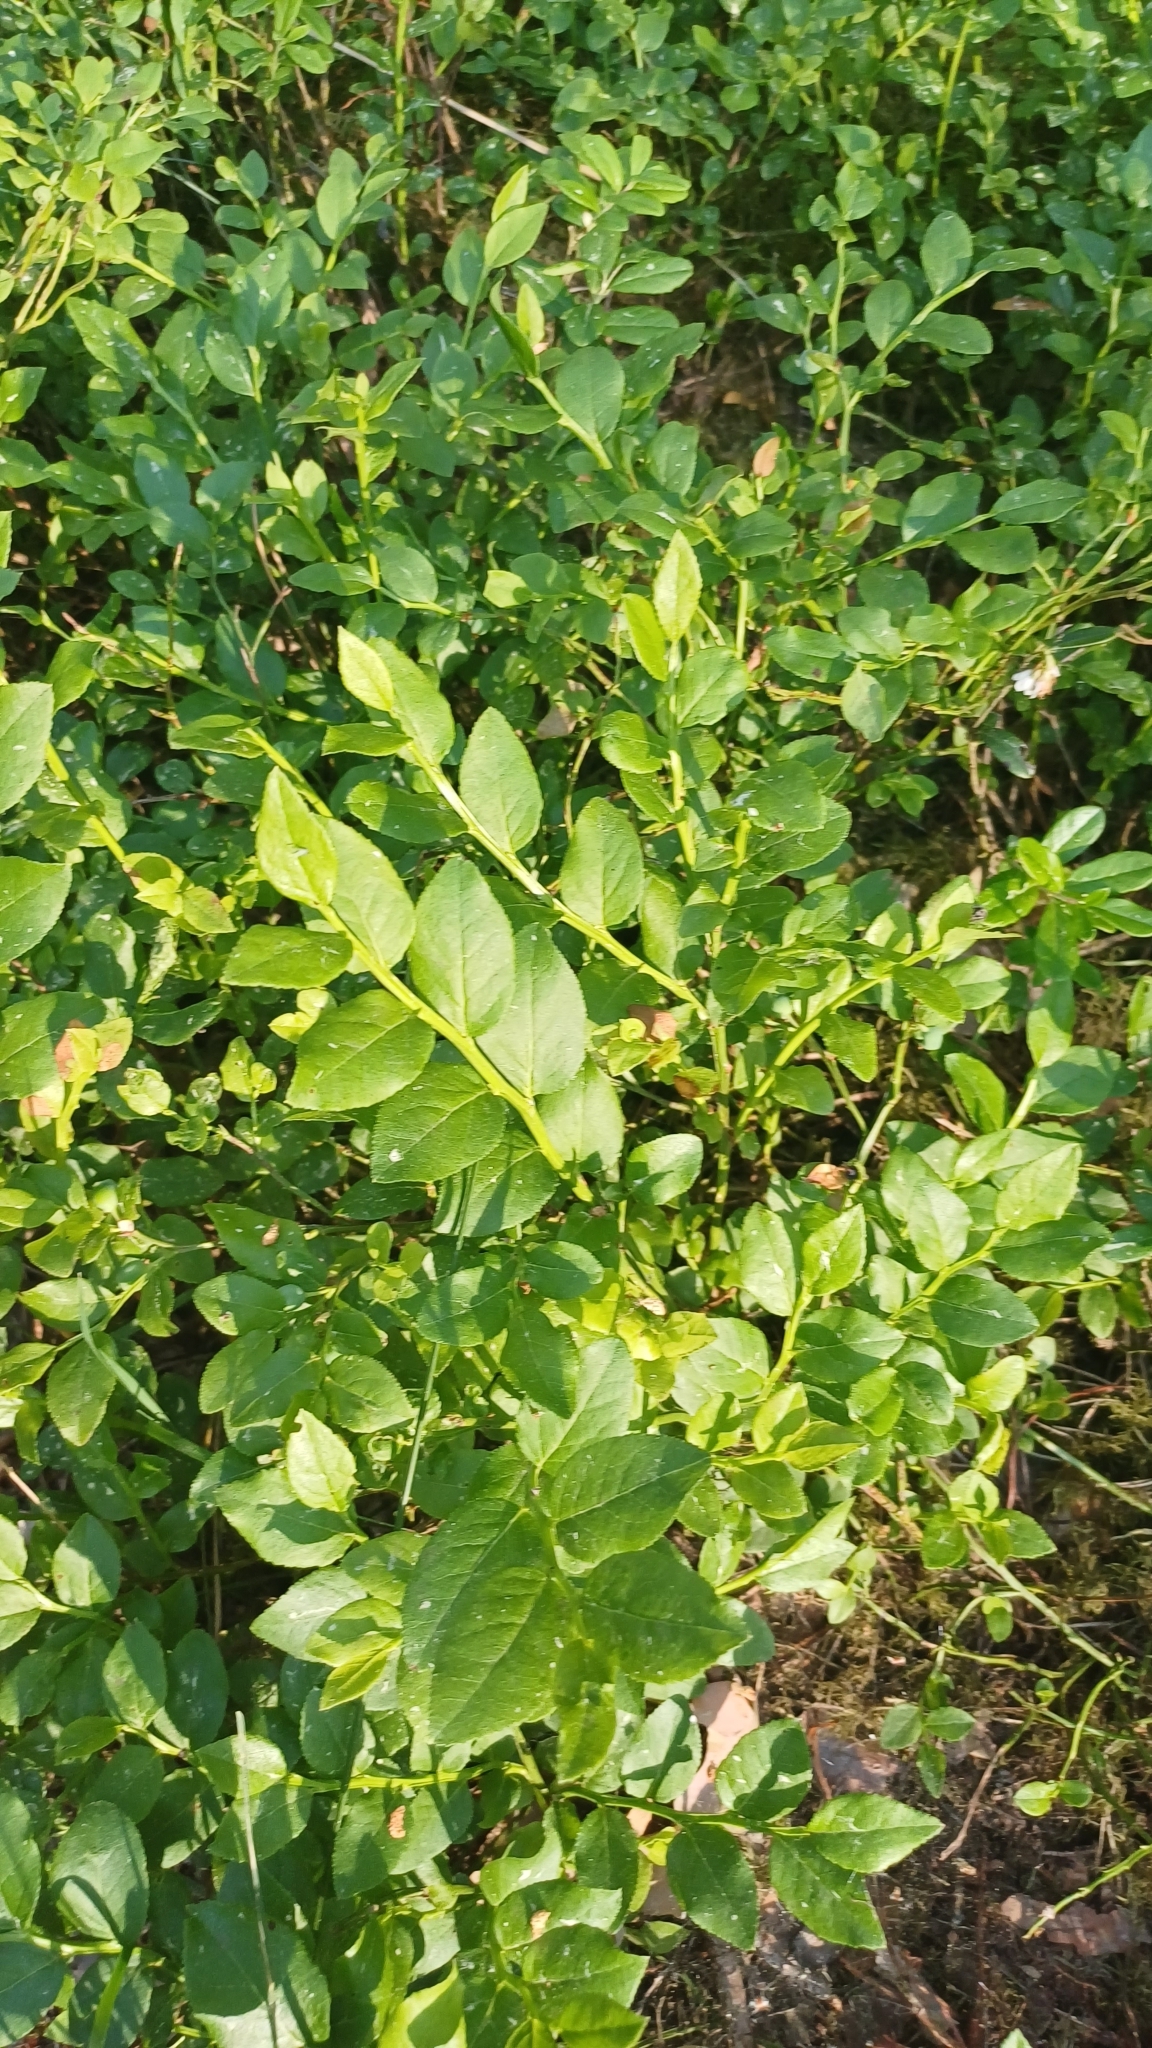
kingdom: Plantae
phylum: Tracheophyta
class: Magnoliopsida
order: Ericales
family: Ericaceae
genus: Vaccinium
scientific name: Vaccinium myrtillus
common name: Bilberry
